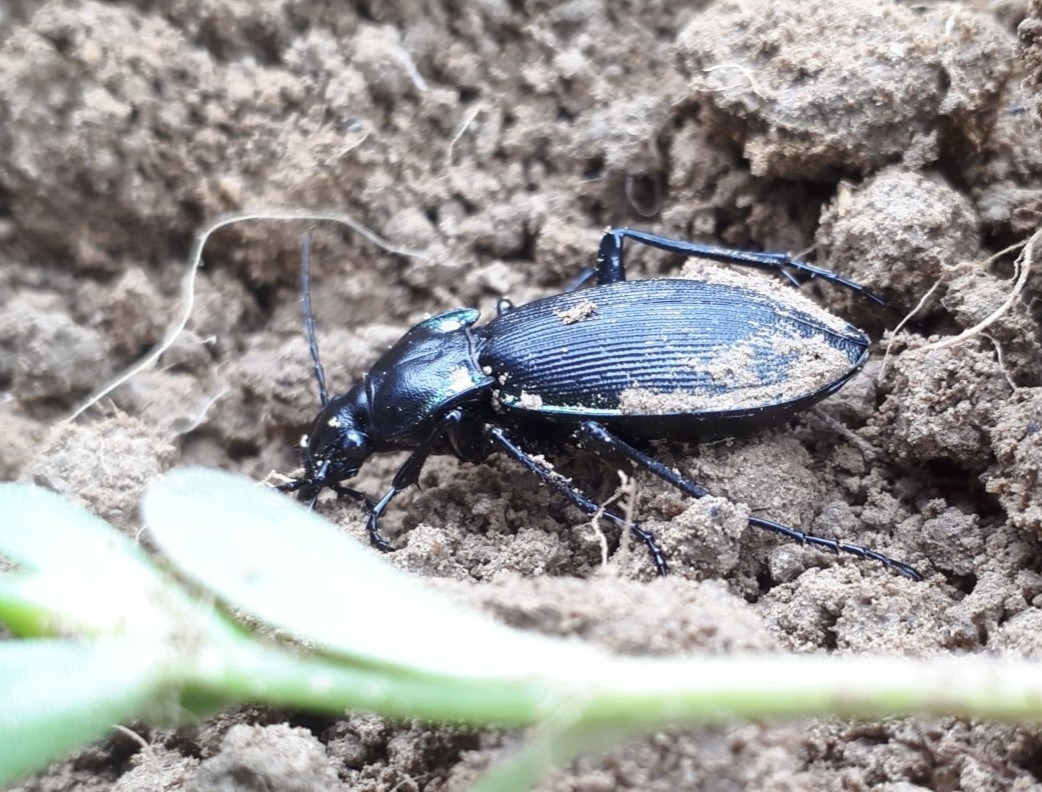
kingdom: Animalia
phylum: Arthropoda
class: Insecta
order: Coleoptera
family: Carabidae
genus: Carabus
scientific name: Carabus purpurascens
